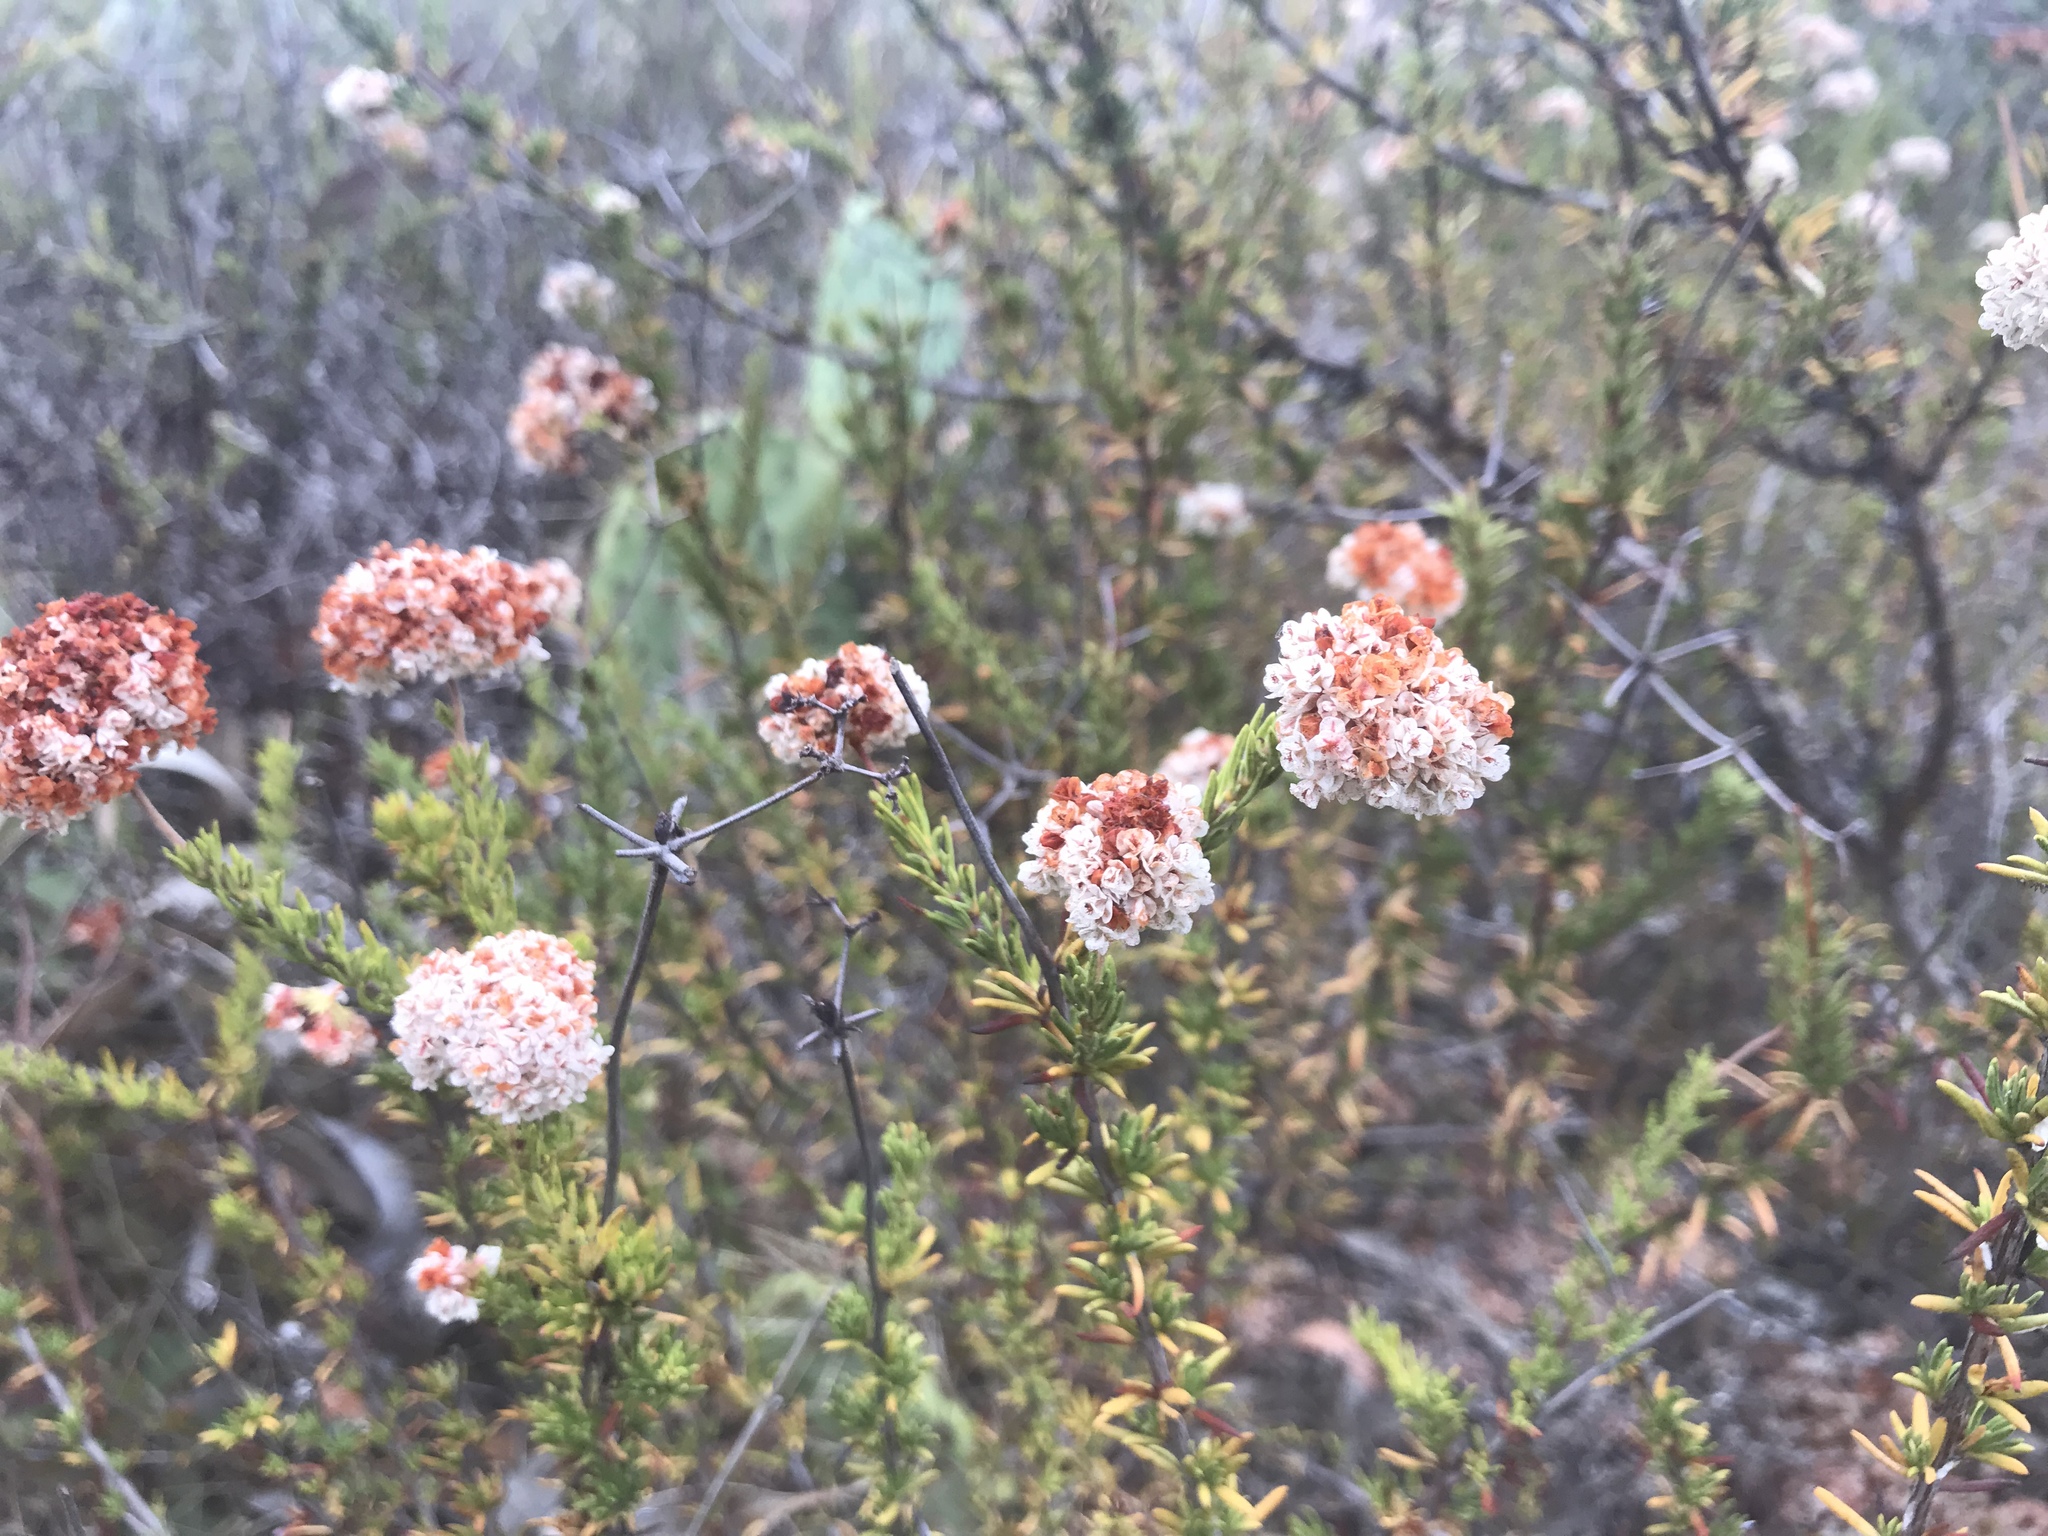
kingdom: Plantae
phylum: Tracheophyta
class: Magnoliopsida
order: Caryophyllales
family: Polygonaceae
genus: Eriogonum
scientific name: Eriogonum fasciculatum
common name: California wild buckwheat
